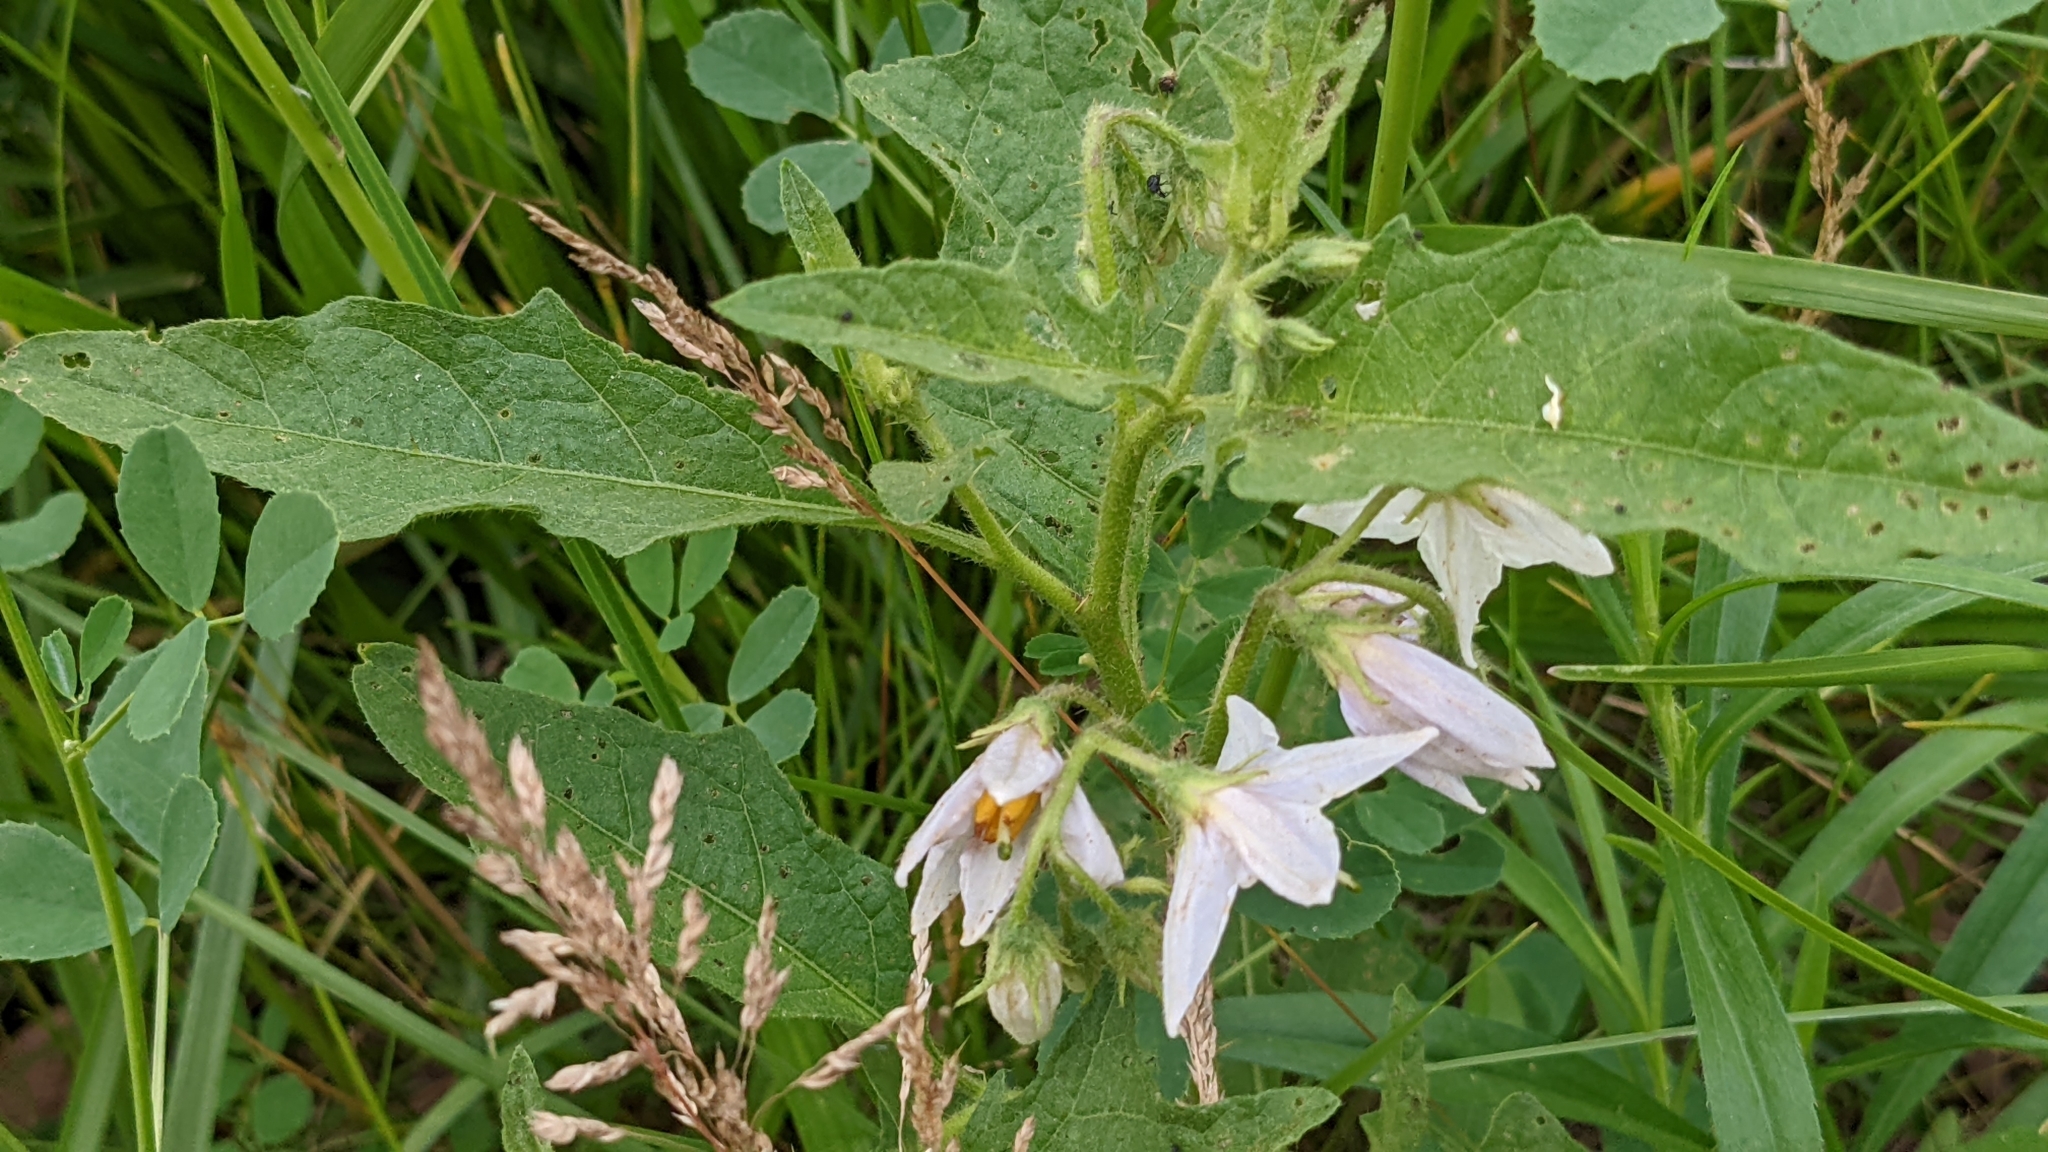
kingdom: Plantae
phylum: Tracheophyta
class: Magnoliopsida
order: Solanales
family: Solanaceae
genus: Solanum
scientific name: Solanum carolinense
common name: Horse-nettle
